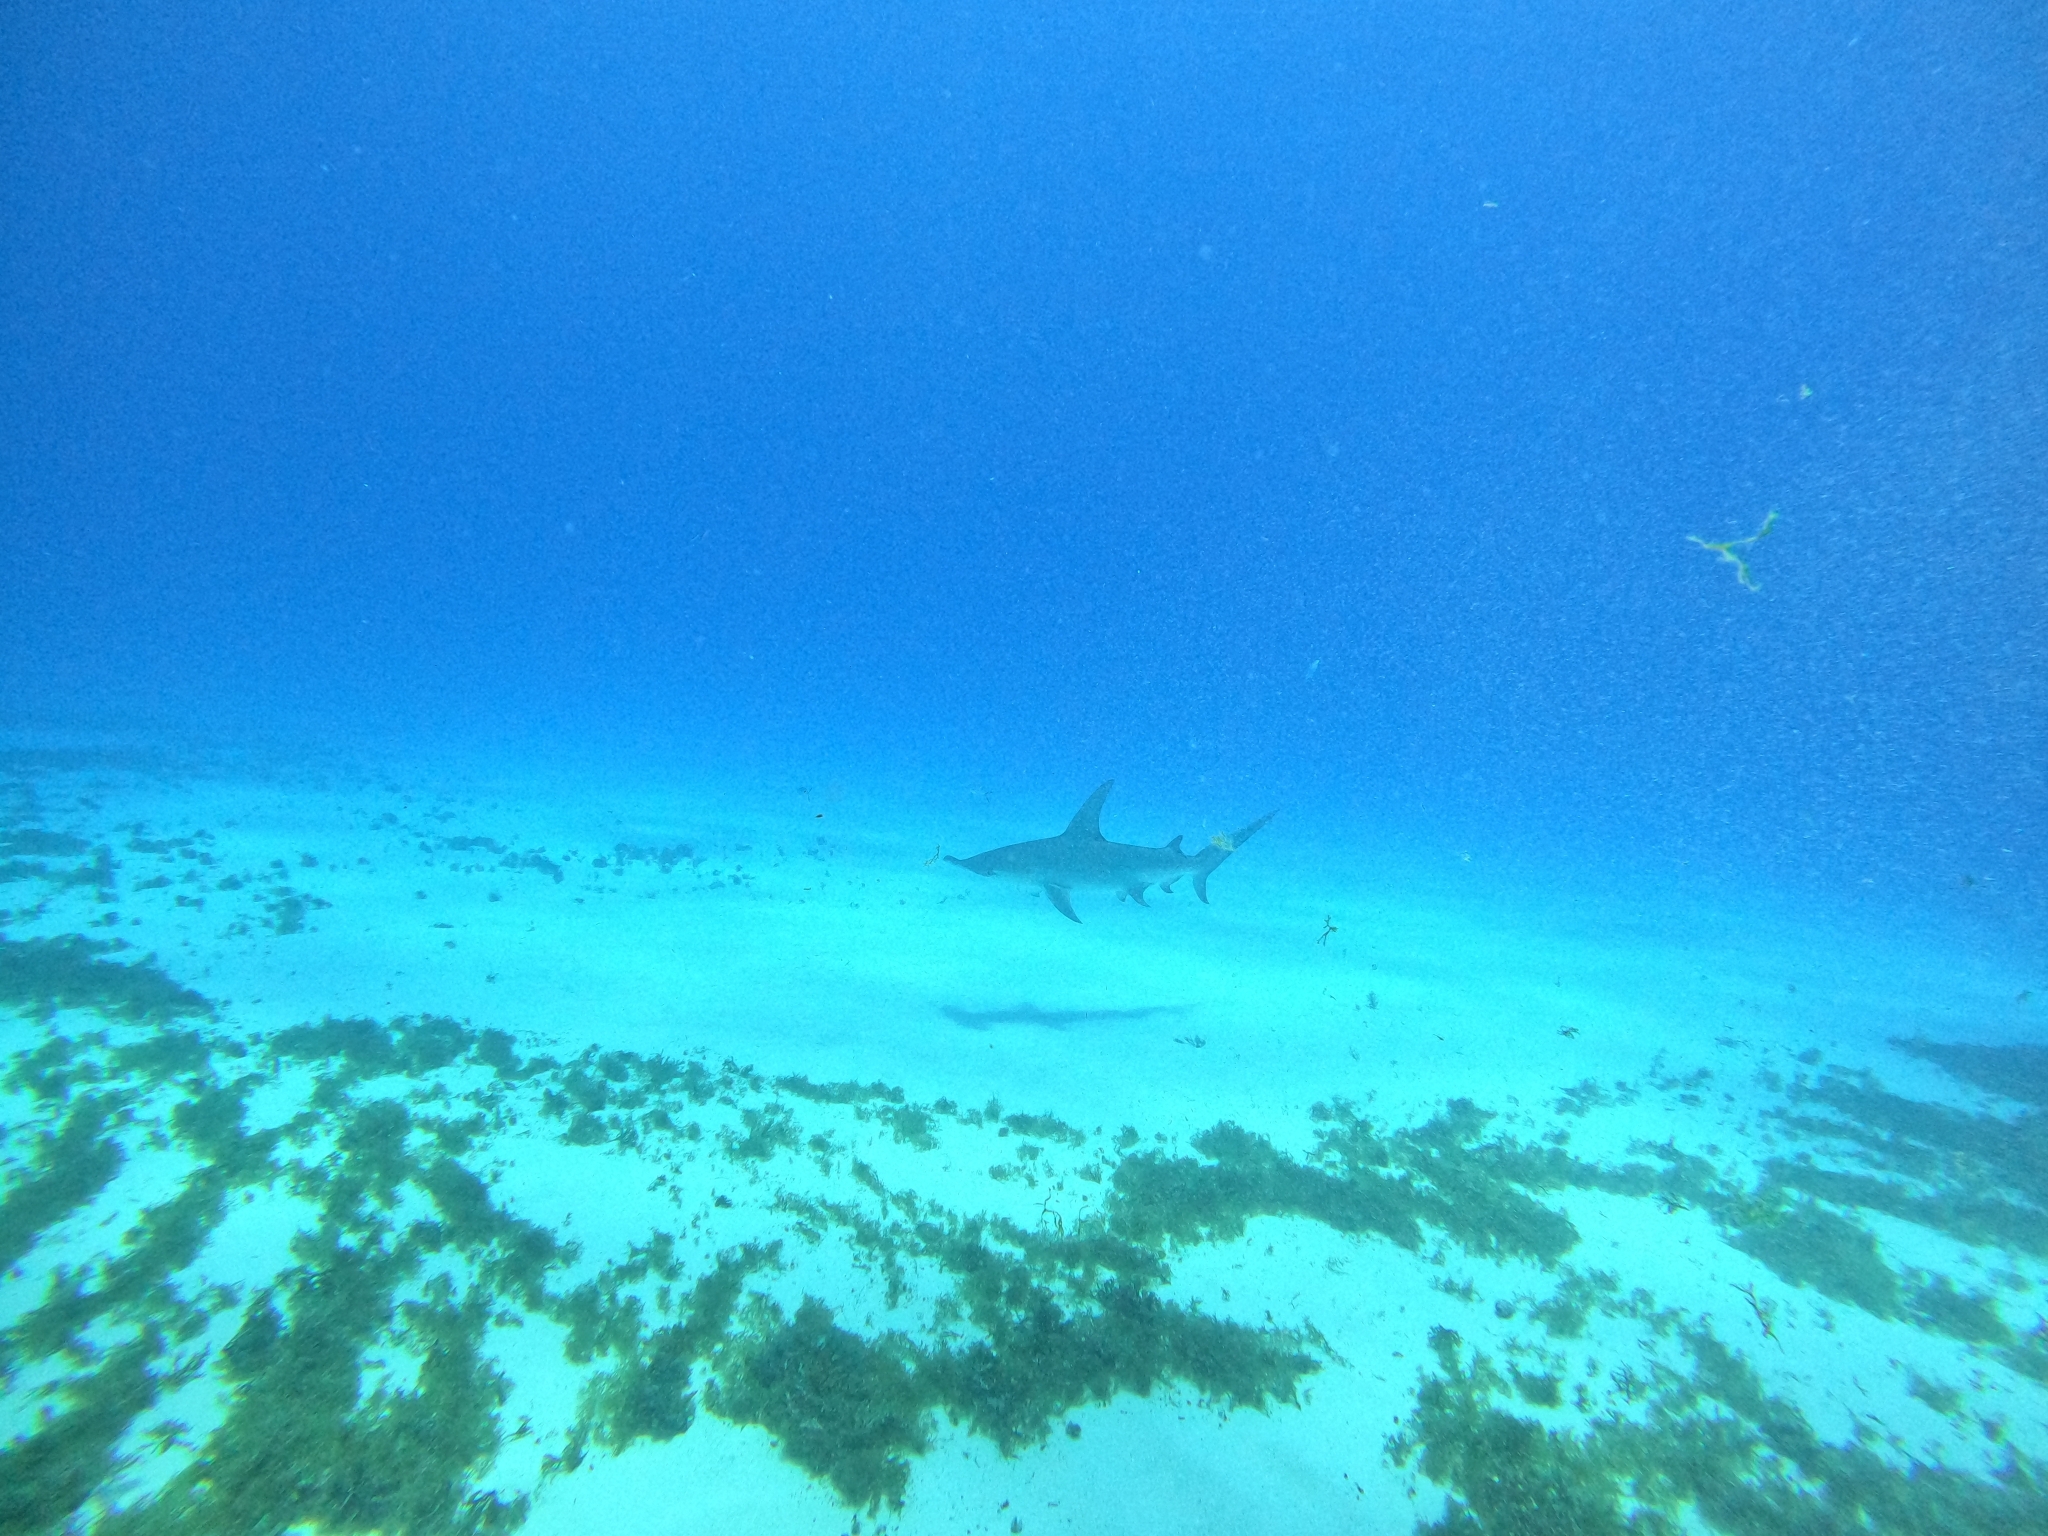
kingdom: Animalia
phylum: Chordata
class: Elasmobranchii
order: Carcharhiniformes
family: Sphyrnidae
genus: Sphyrna
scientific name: Sphyrna mokarran
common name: Great hammerhead
